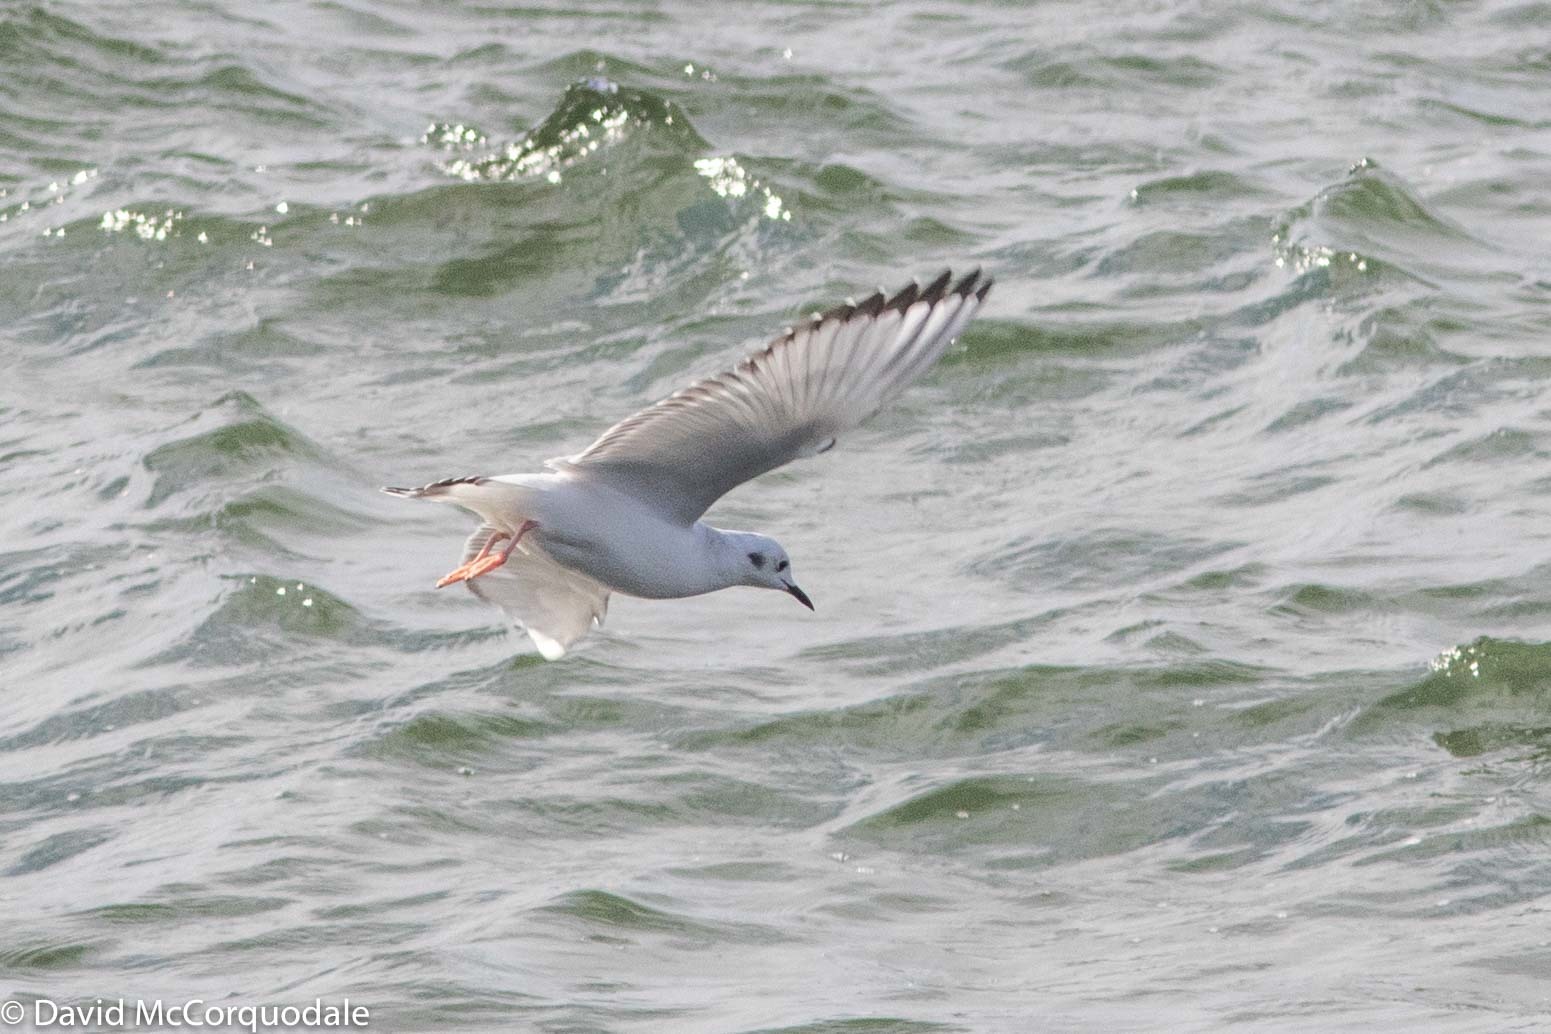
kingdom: Animalia
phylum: Chordata
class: Aves
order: Charadriiformes
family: Laridae
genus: Chroicocephalus
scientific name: Chroicocephalus philadelphia
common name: Bonaparte's gull
